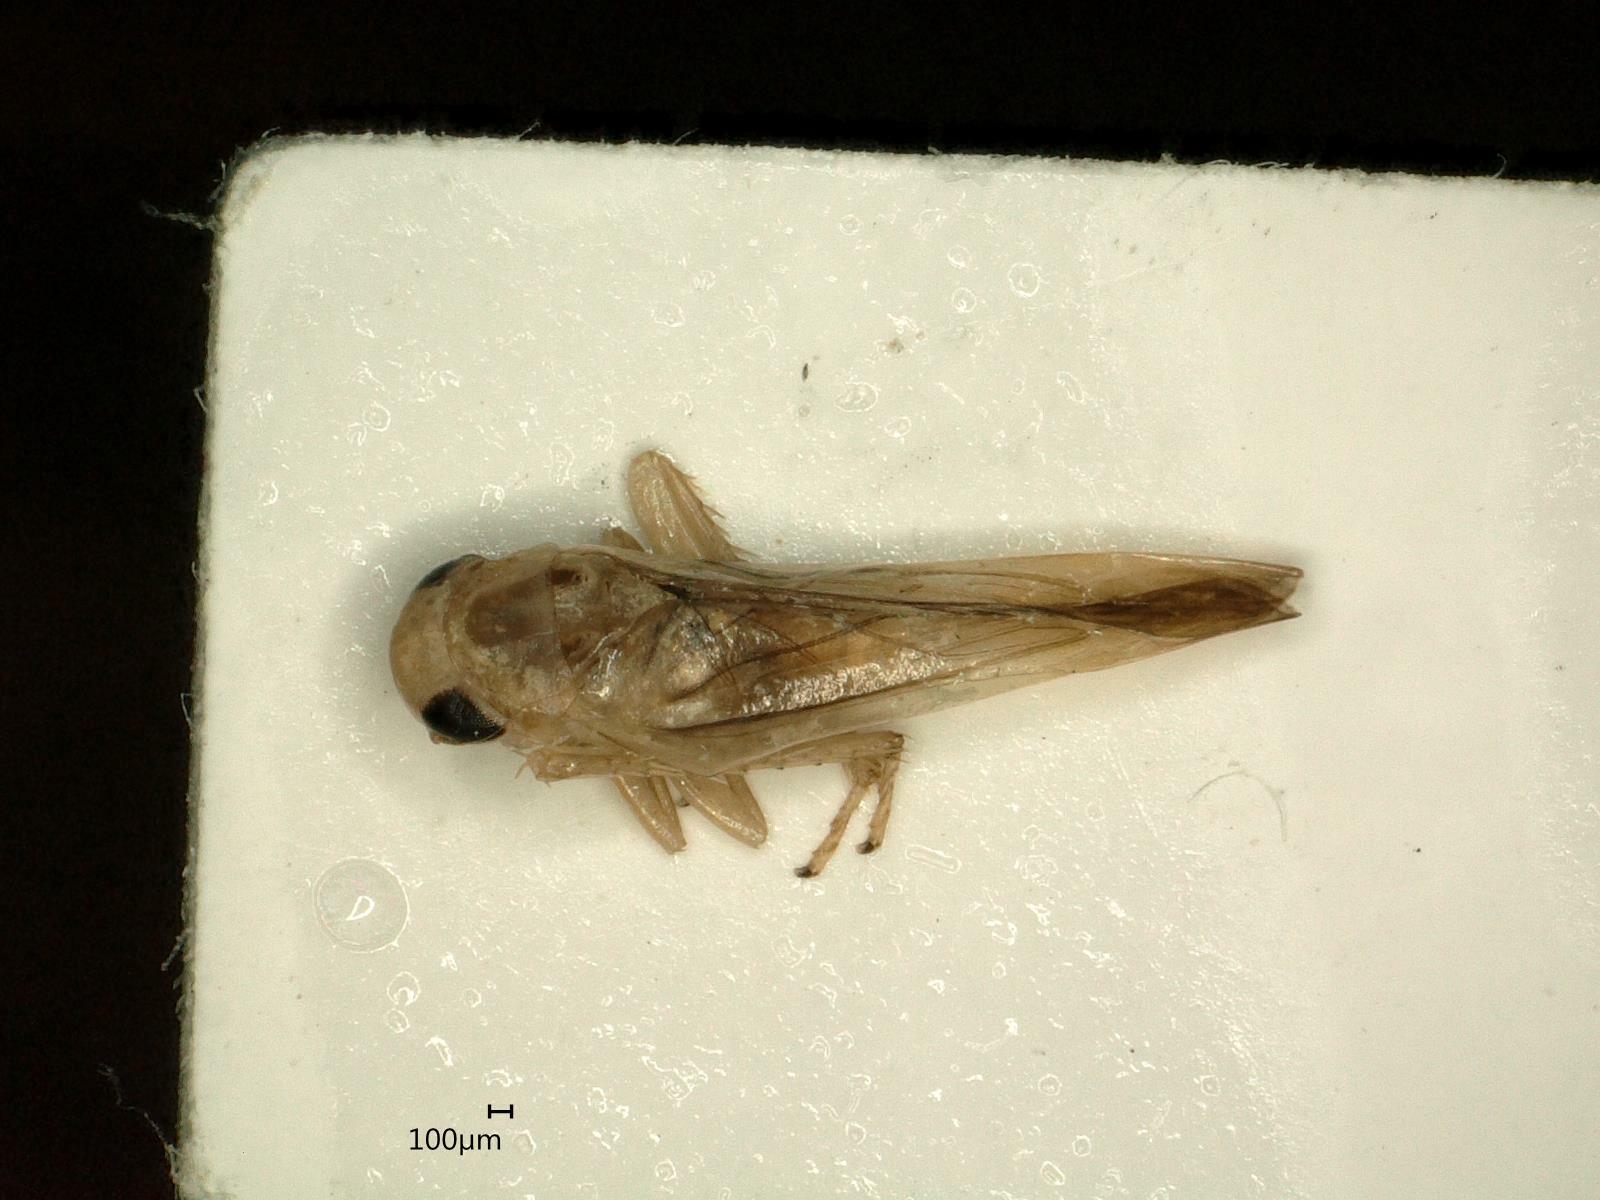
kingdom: Animalia
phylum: Arthropoda
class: Insecta
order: Hemiptera
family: Cicadellidae
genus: Kybos
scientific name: Kybos virgator
